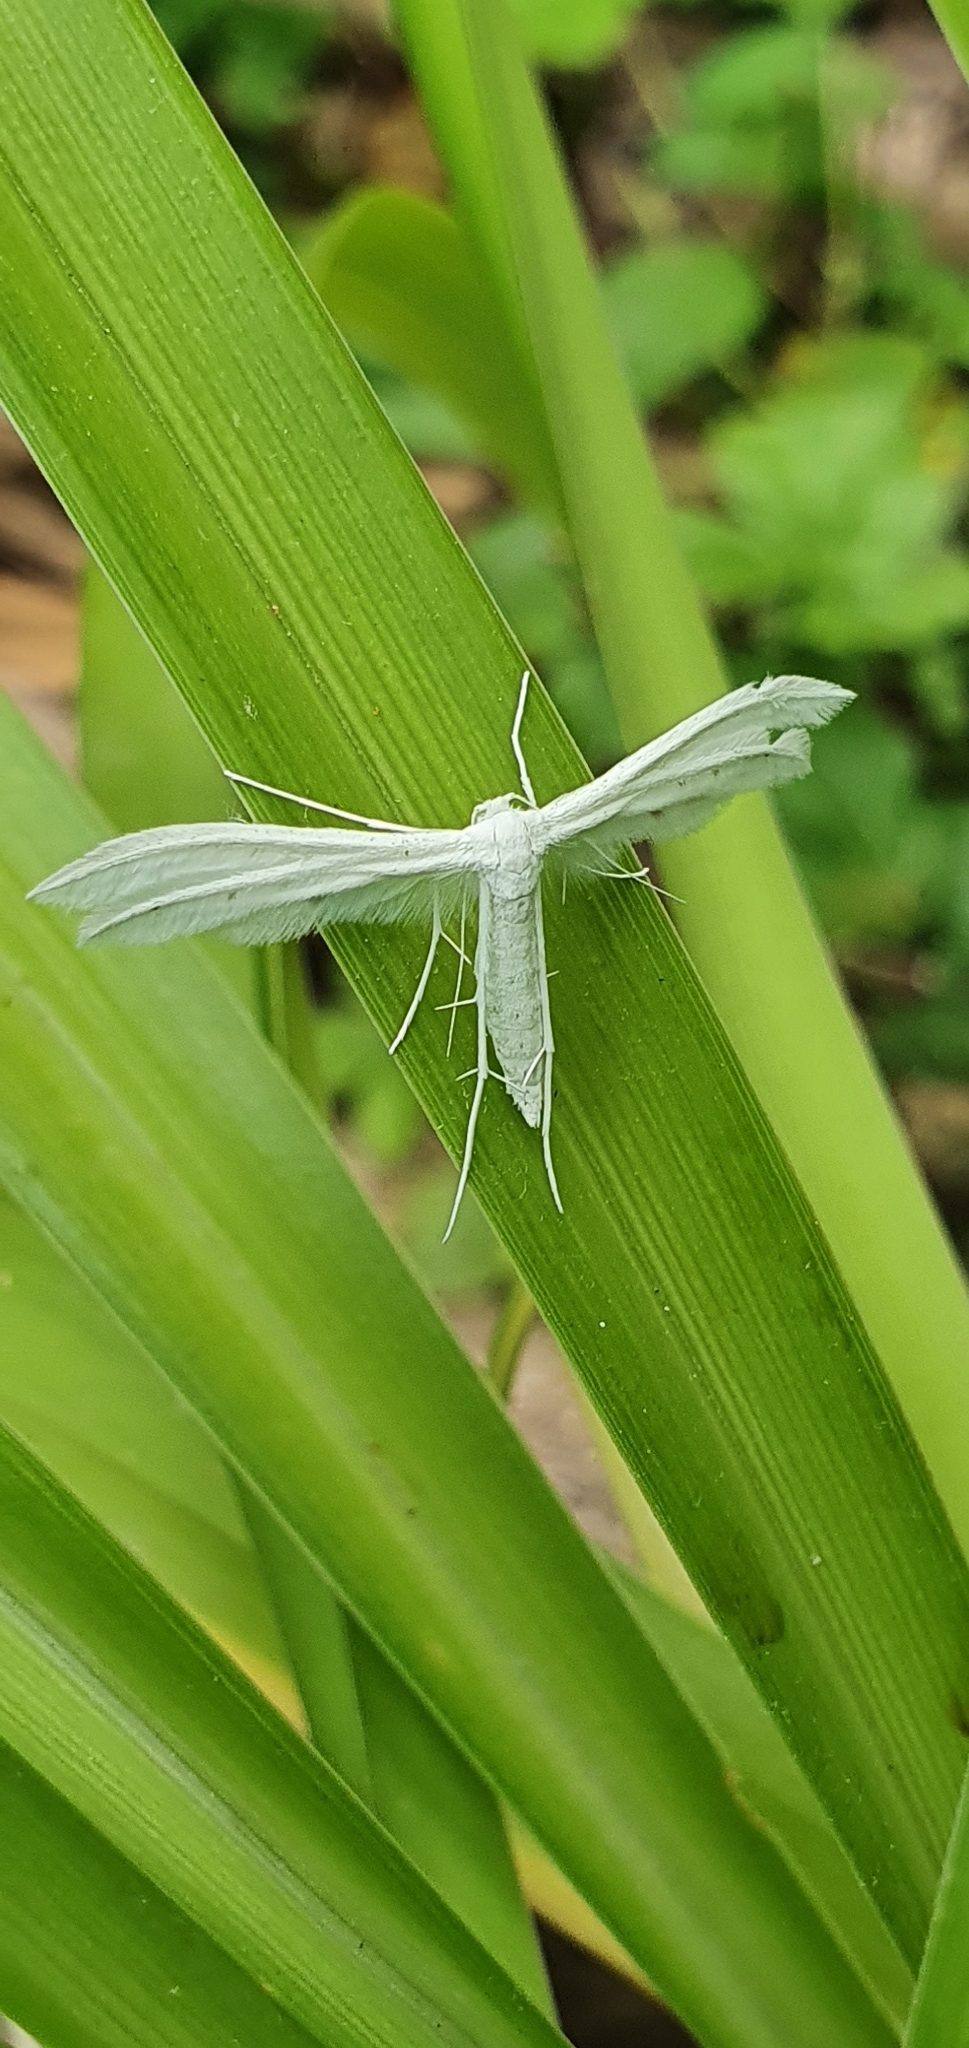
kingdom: Animalia
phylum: Arthropoda
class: Insecta
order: Lepidoptera
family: Pterophoridae
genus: Pterophorus
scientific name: Pterophorus pentadactyla
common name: White plume moth
